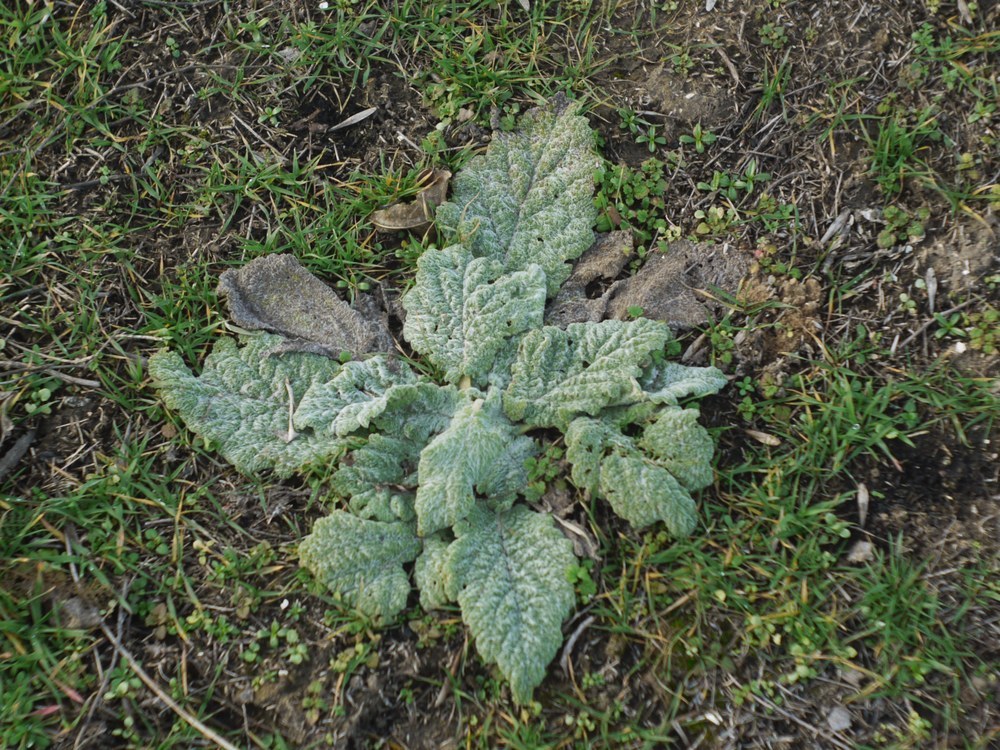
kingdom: Plantae
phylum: Tracheophyta
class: Magnoliopsida
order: Lamiales
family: Lamiaceae
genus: Salvia
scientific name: Salvia aethiopis
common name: Mediterranean sage
